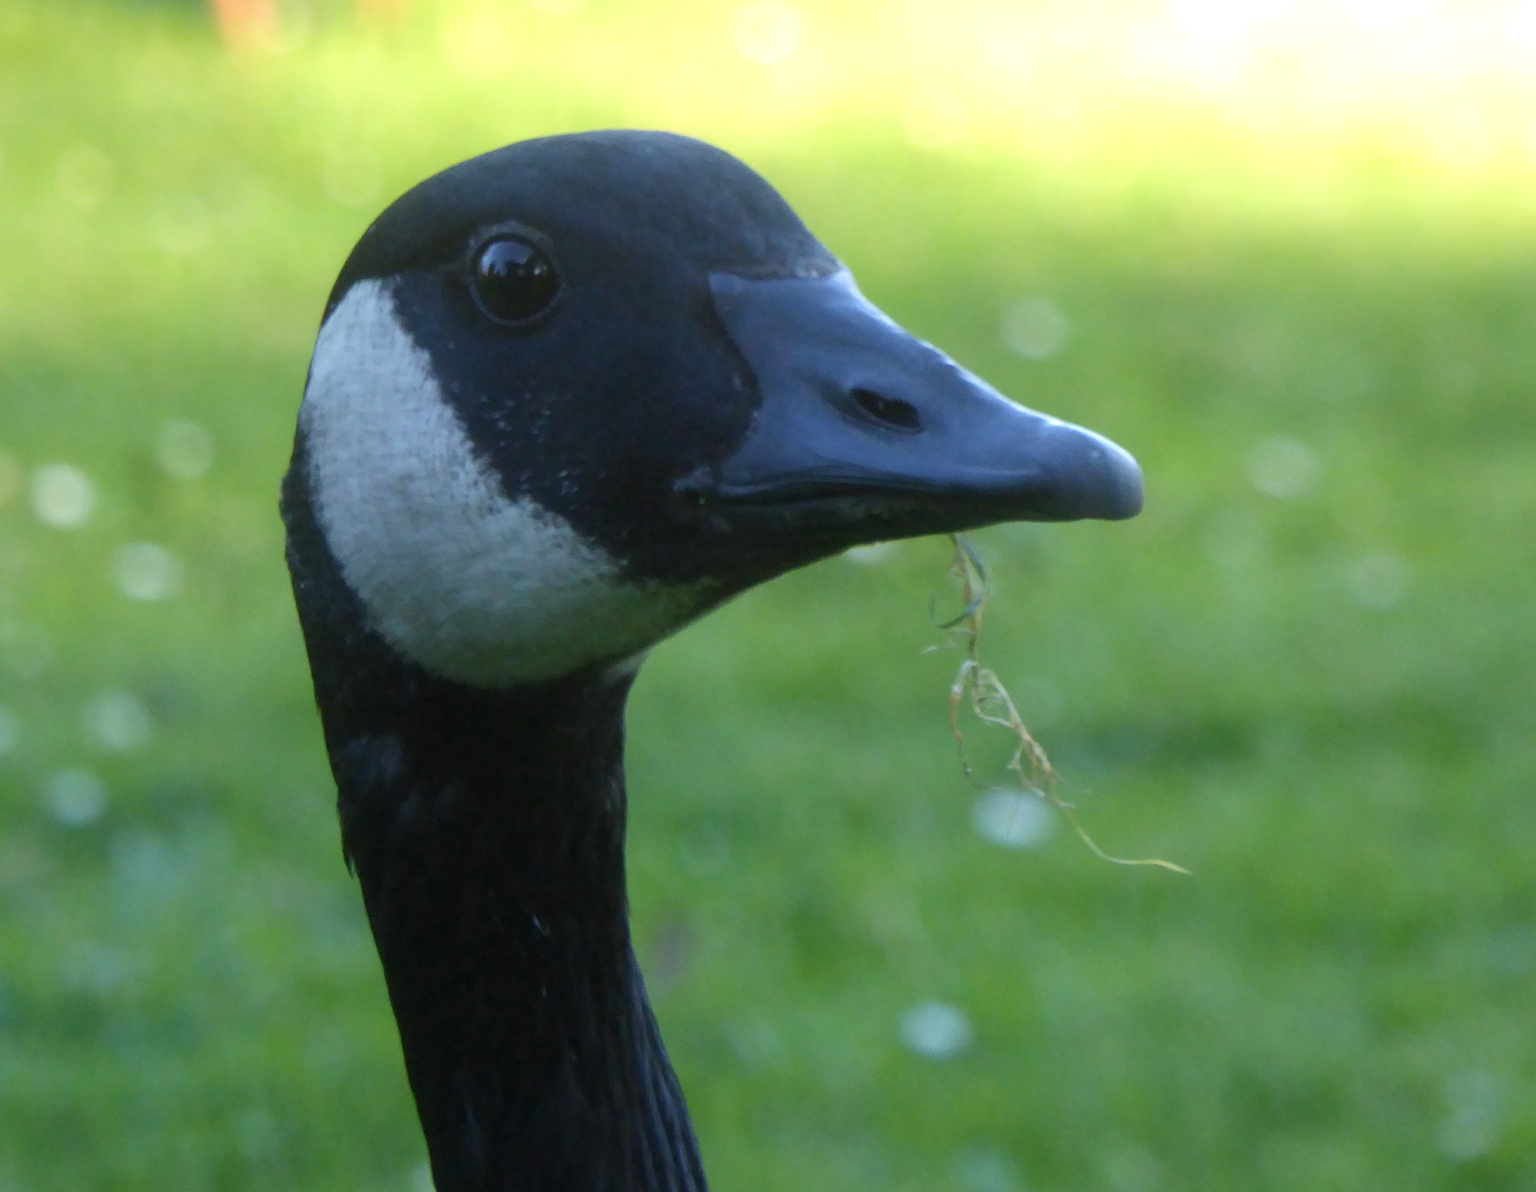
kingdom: Animalia
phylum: Chordata
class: Aves
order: Anseriformes
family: Anatidae
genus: Branta
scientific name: Branta canadensis
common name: Canada goose
